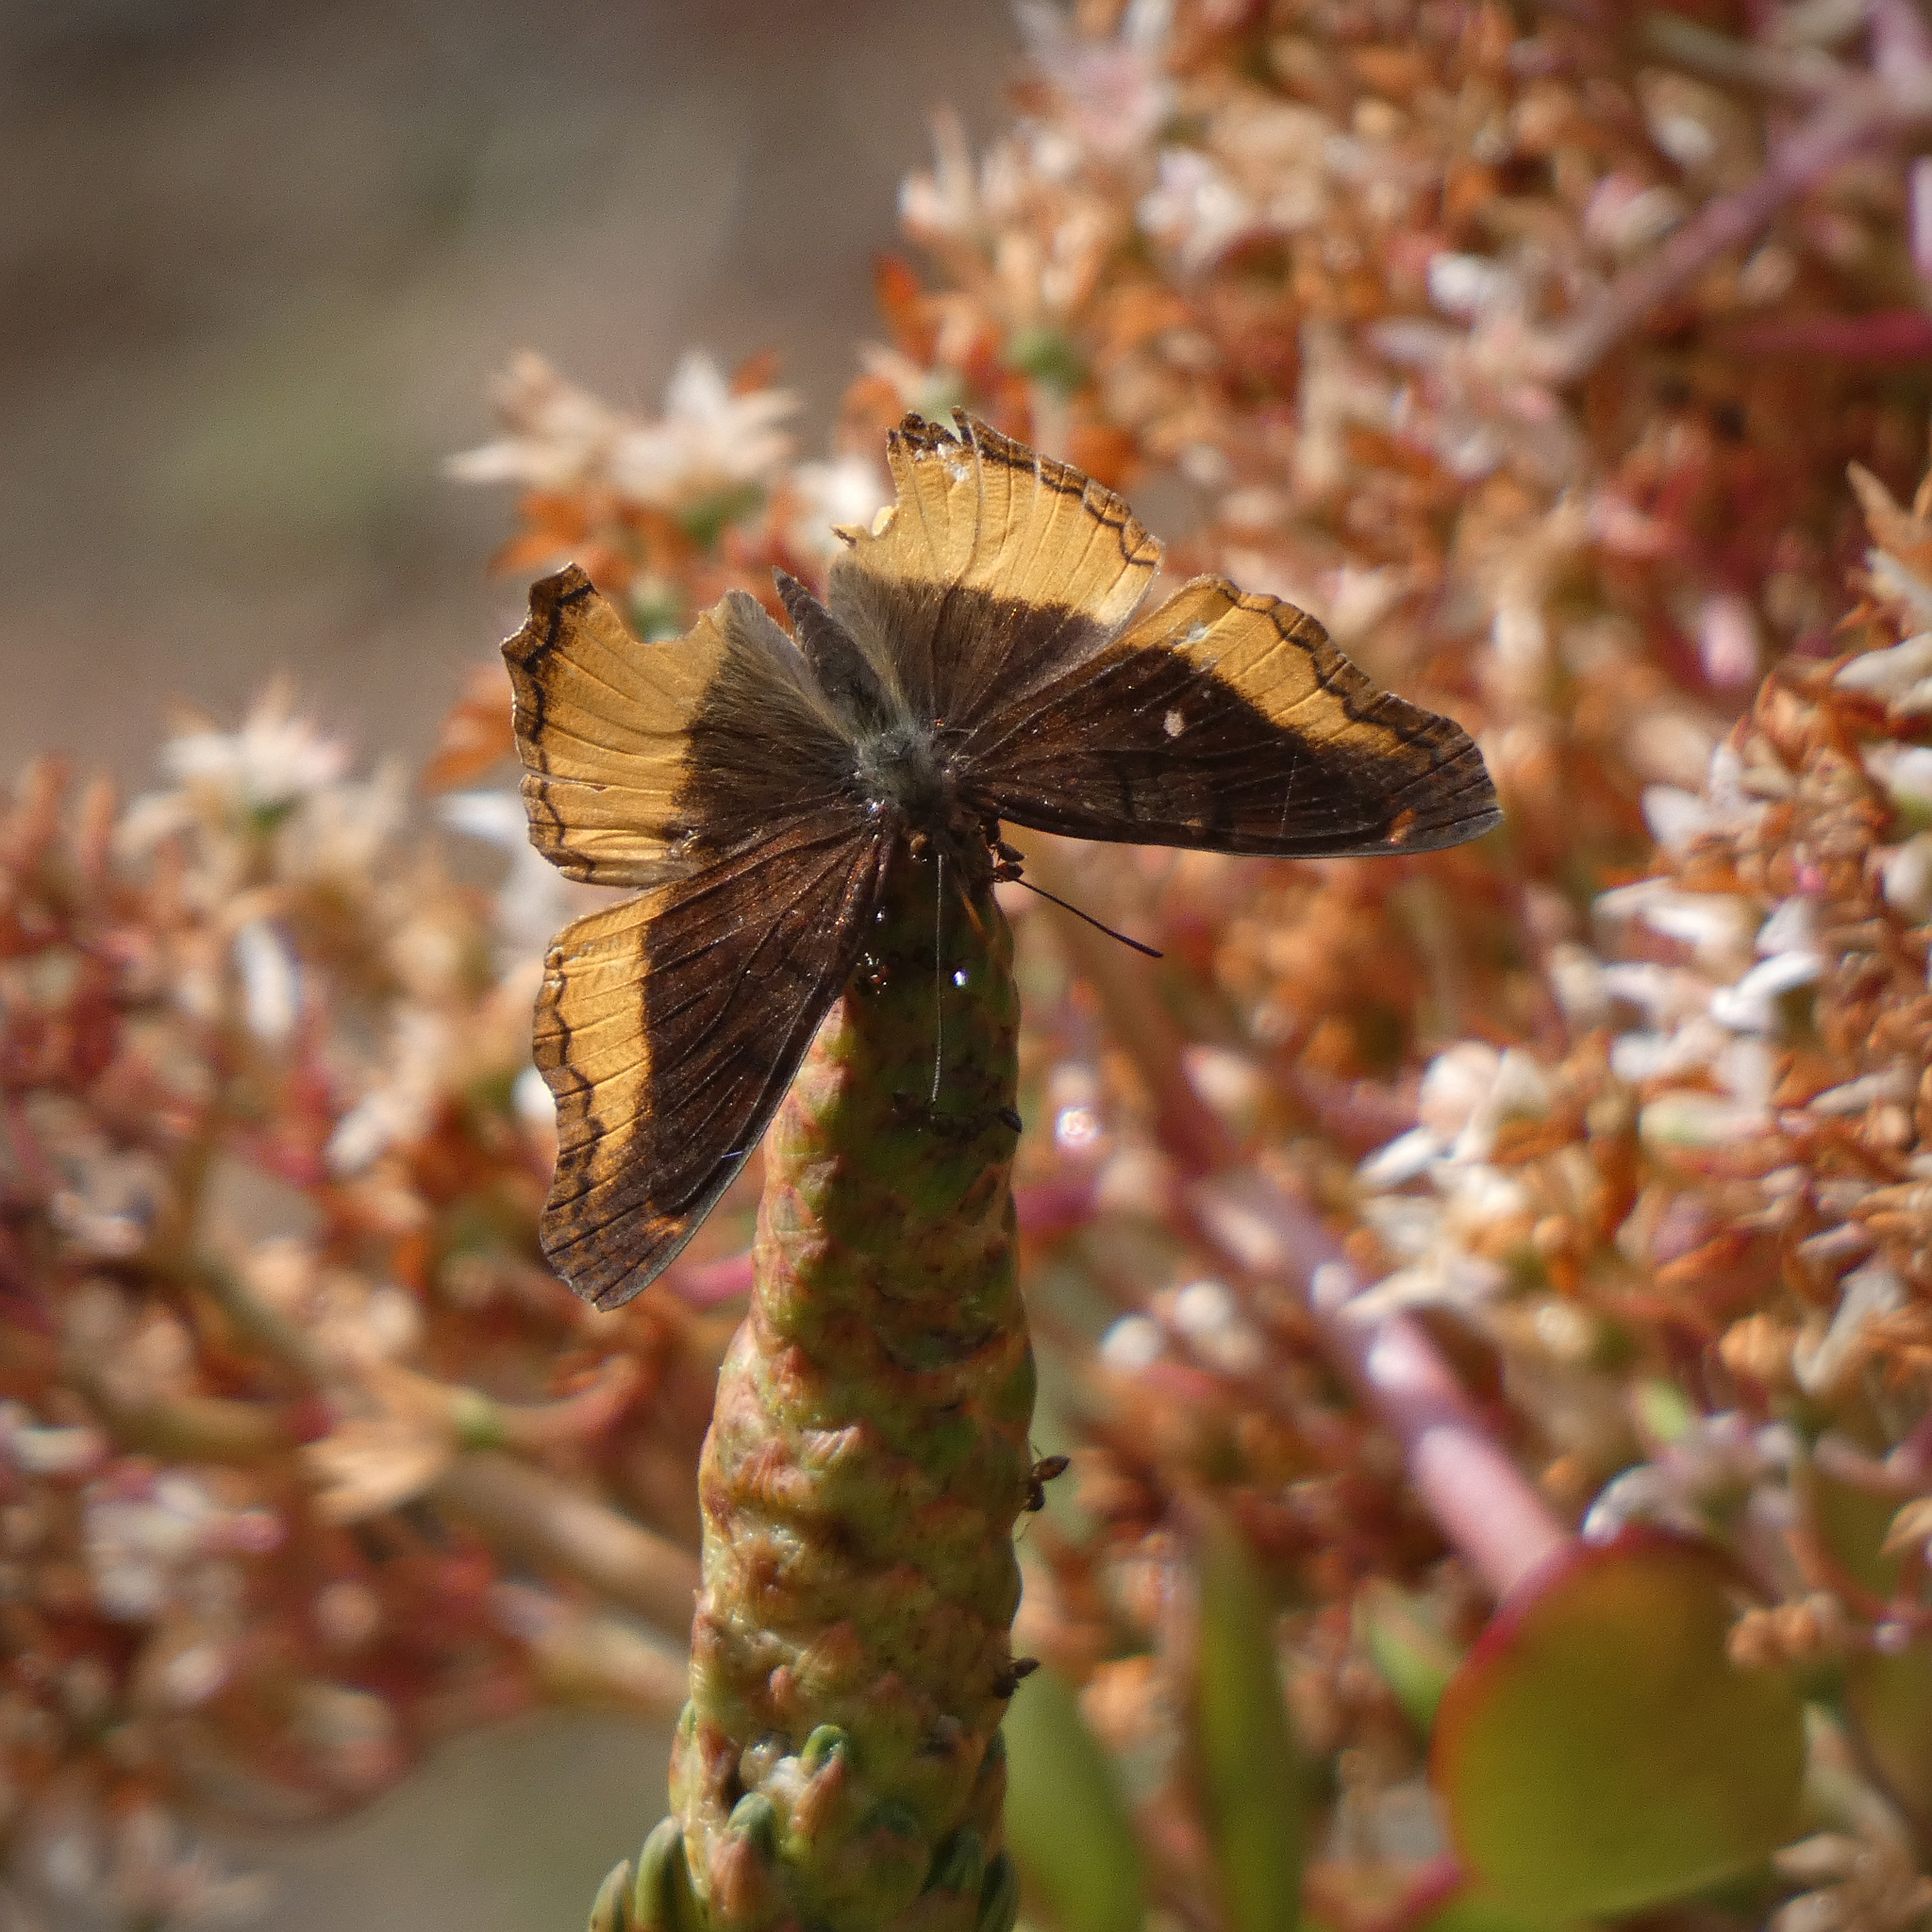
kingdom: Animalia
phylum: Arthropoda
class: Insecta
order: Lepidoptera
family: Nymphalidae
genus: Eurytela
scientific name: Eurytela dryope
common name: Golden piper
